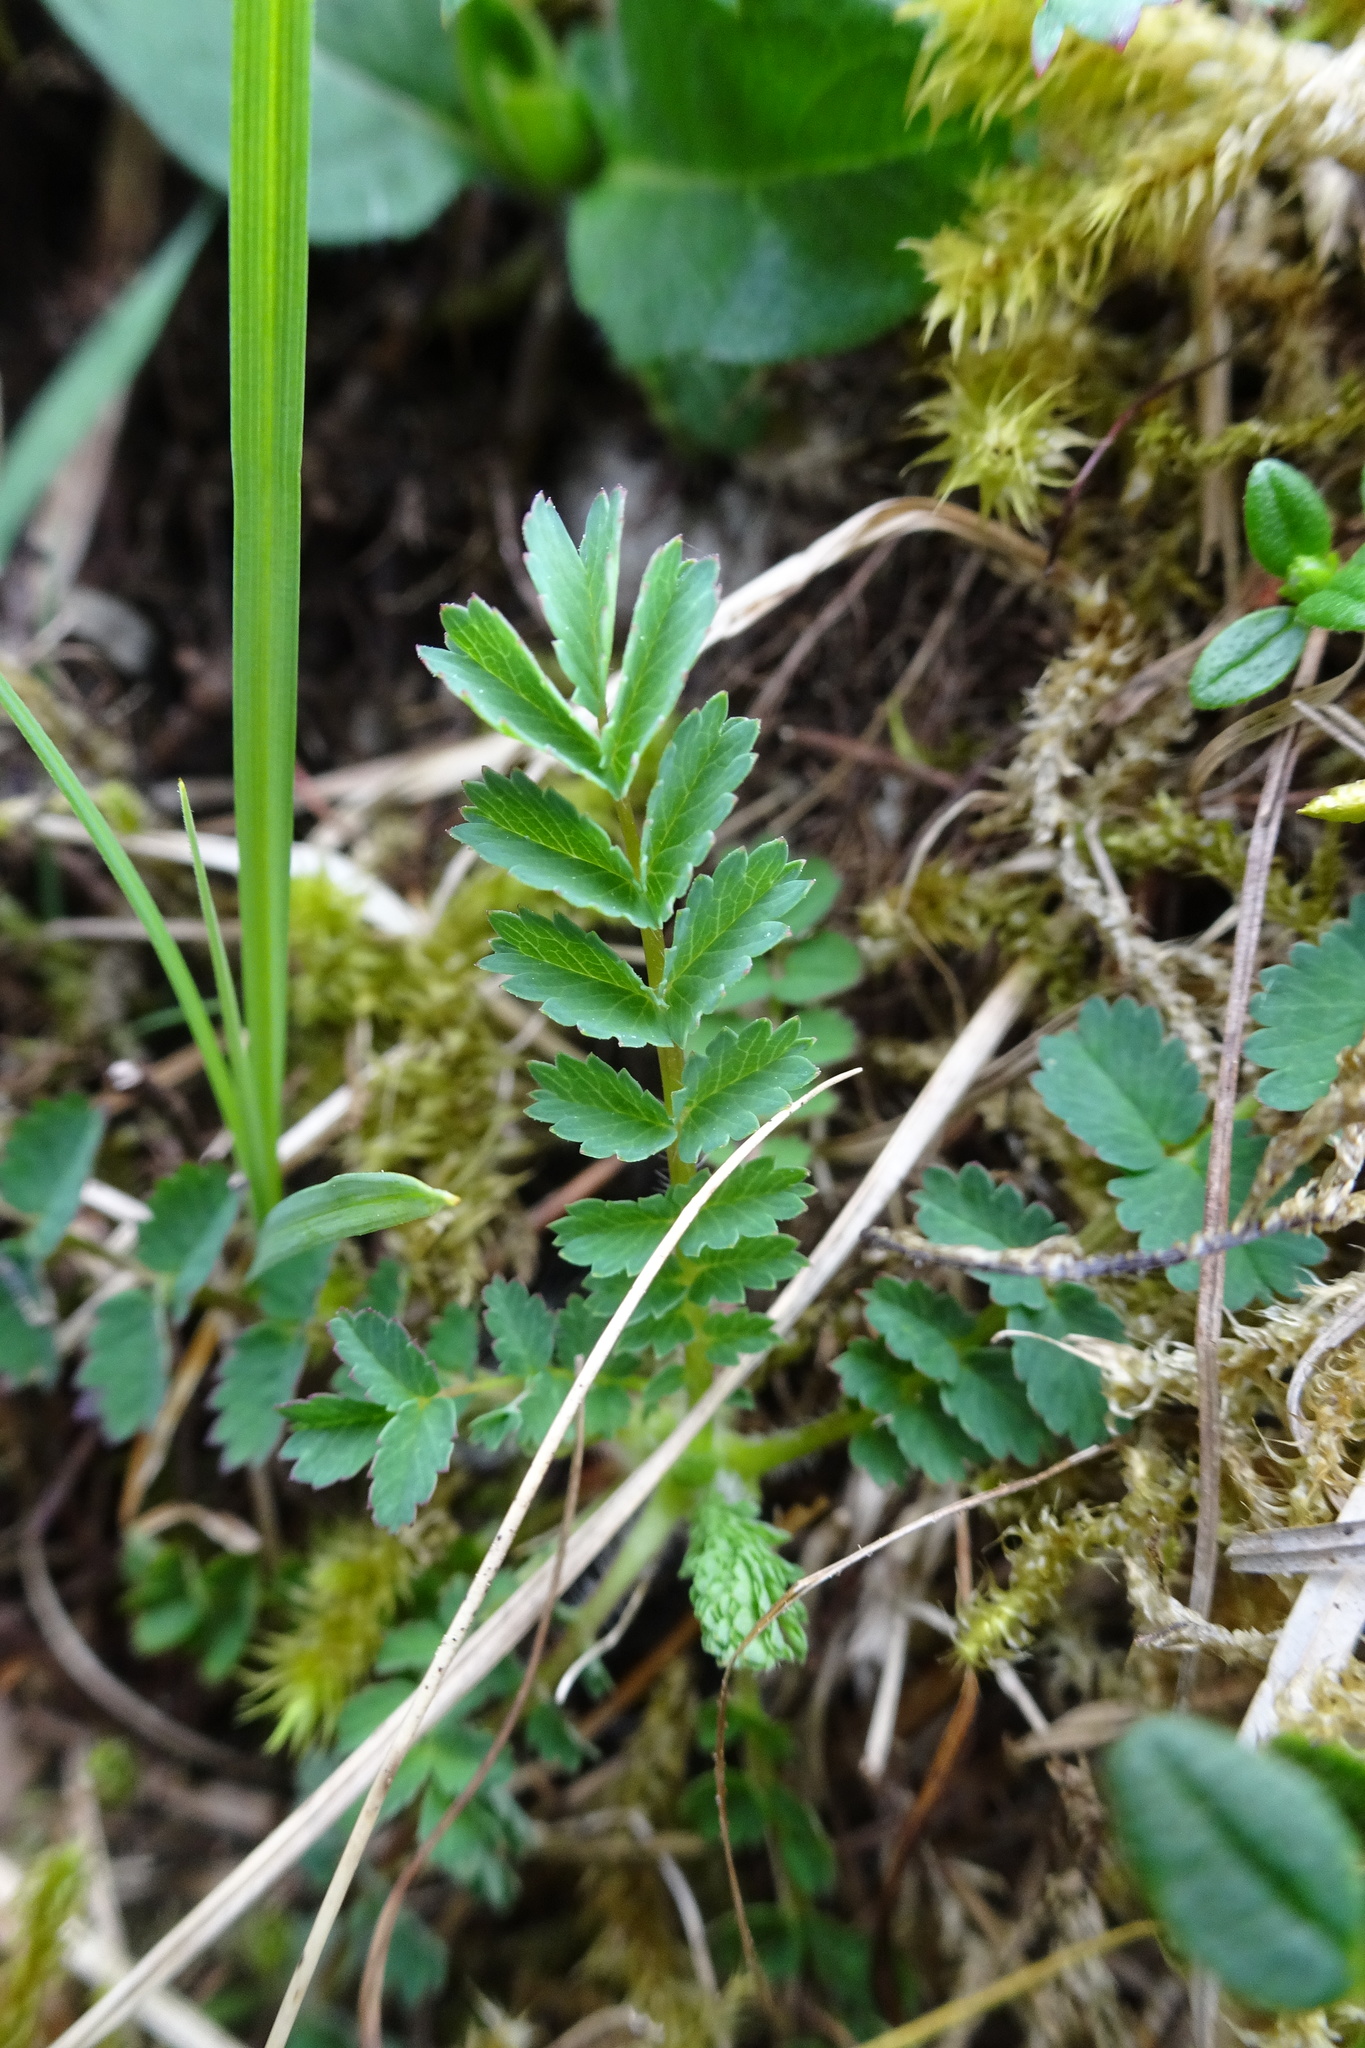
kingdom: Plantae
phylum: Tracheophyta
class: Magnoliopsida
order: Rosales
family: Rosaceae
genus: Poterium
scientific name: Poterium sanguisorba
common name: Salad burnet
